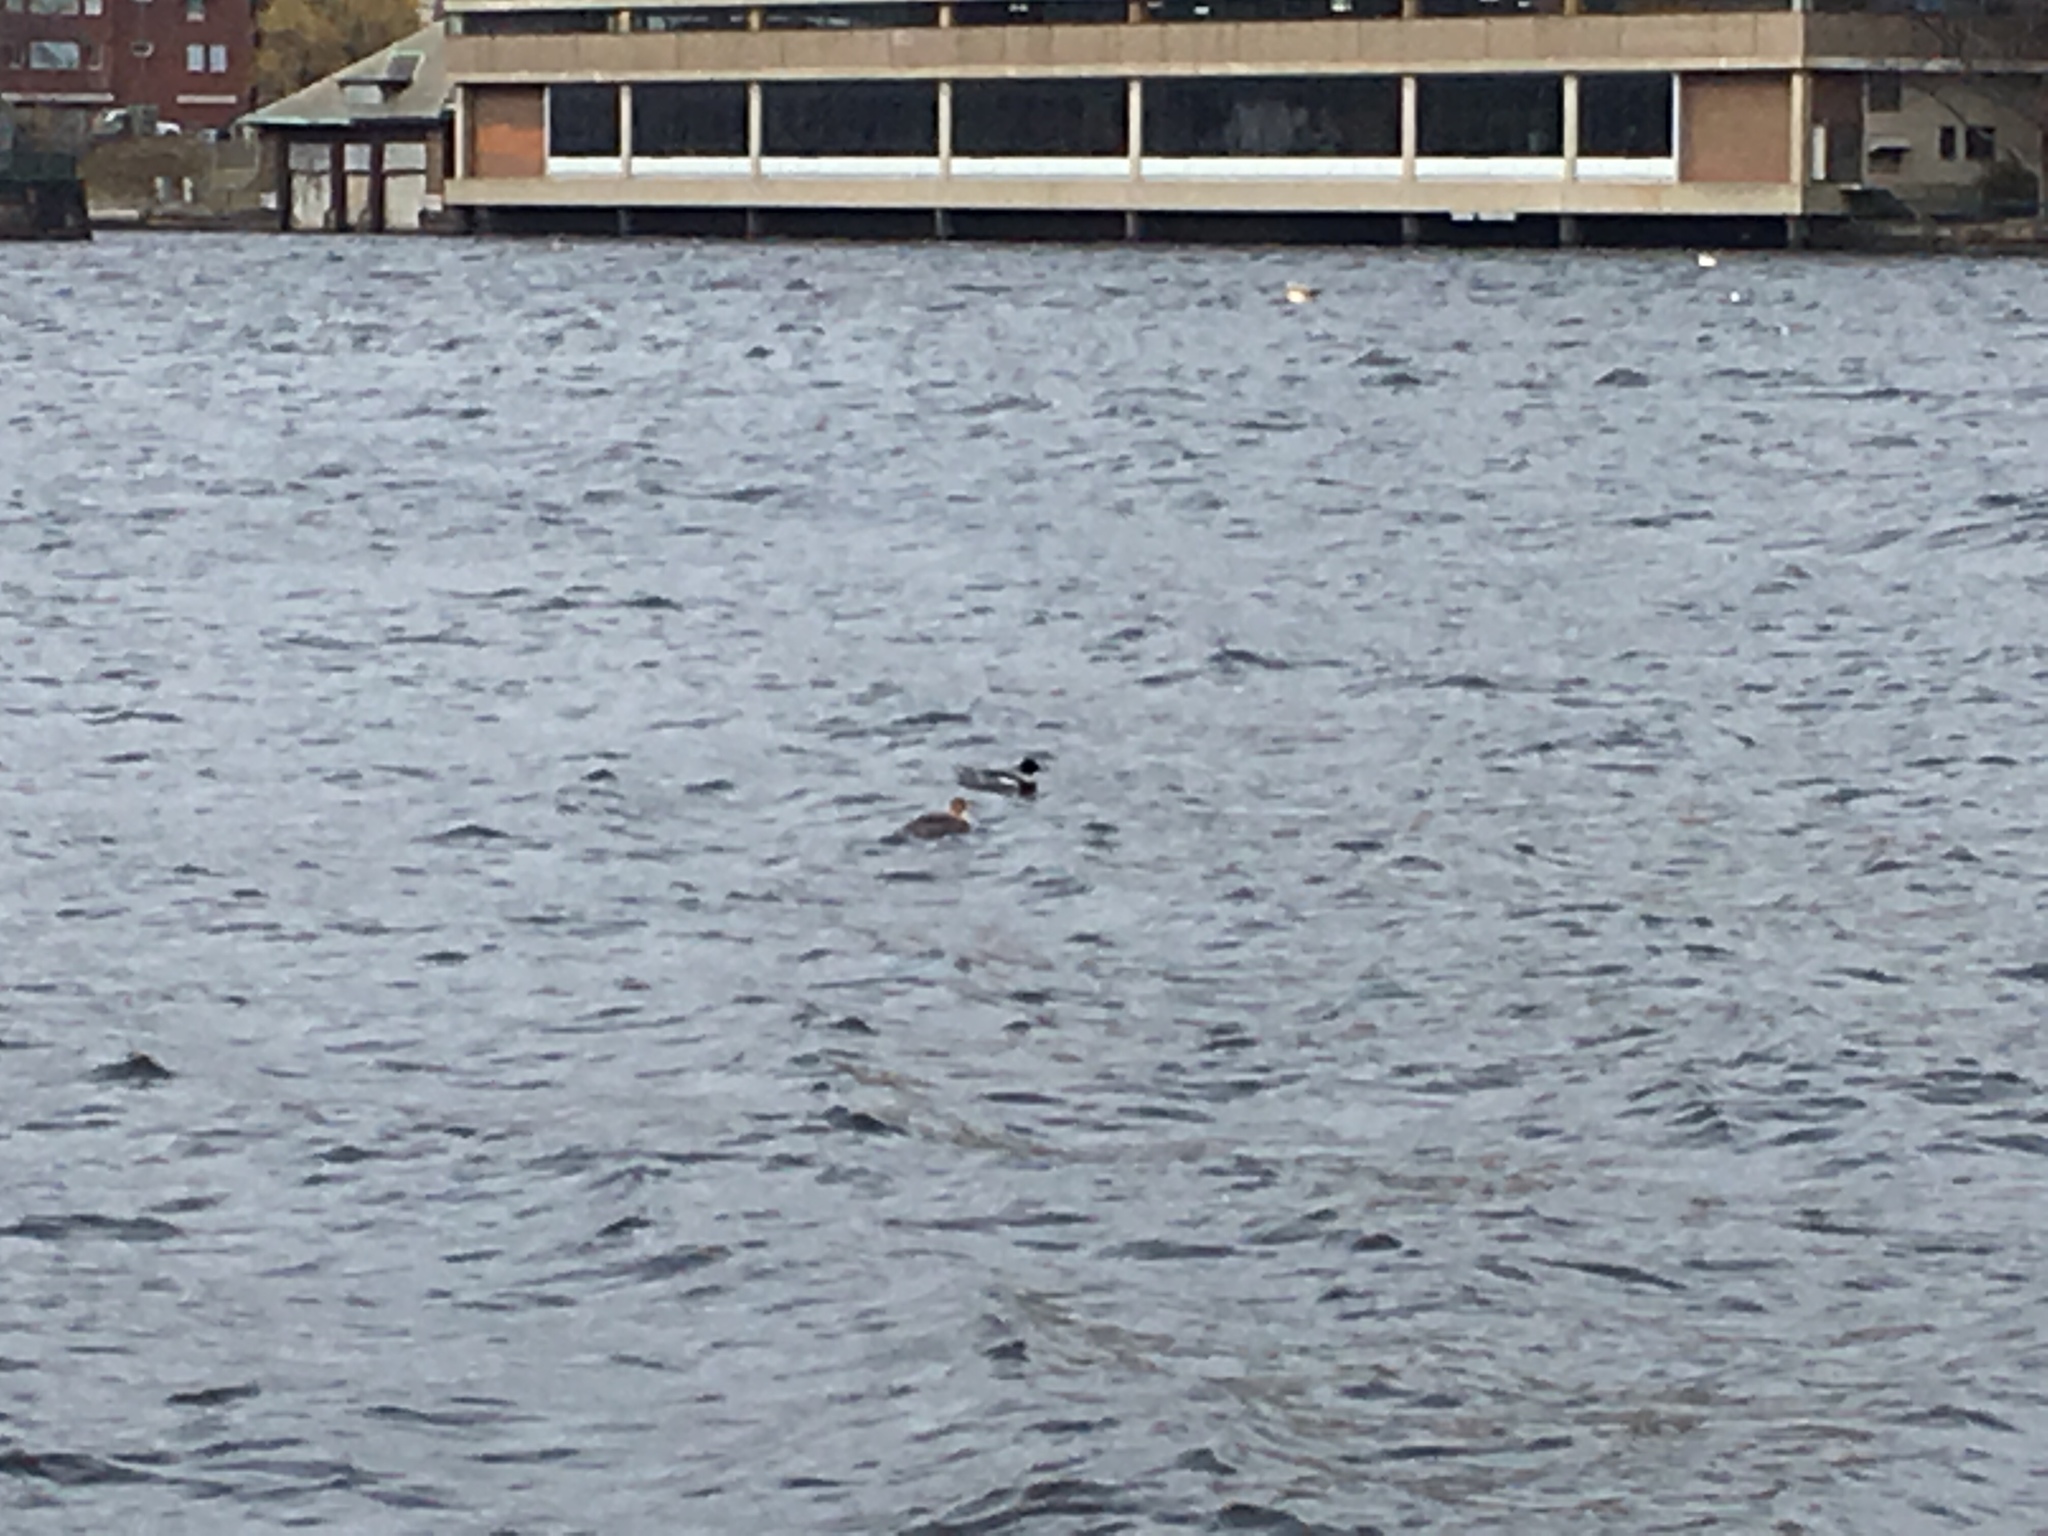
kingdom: Animalia
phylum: Chordata
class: Aves
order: Anseriformes
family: Anatidae
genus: Mergus
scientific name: Mergus serrator
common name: Red-breasted merganser
